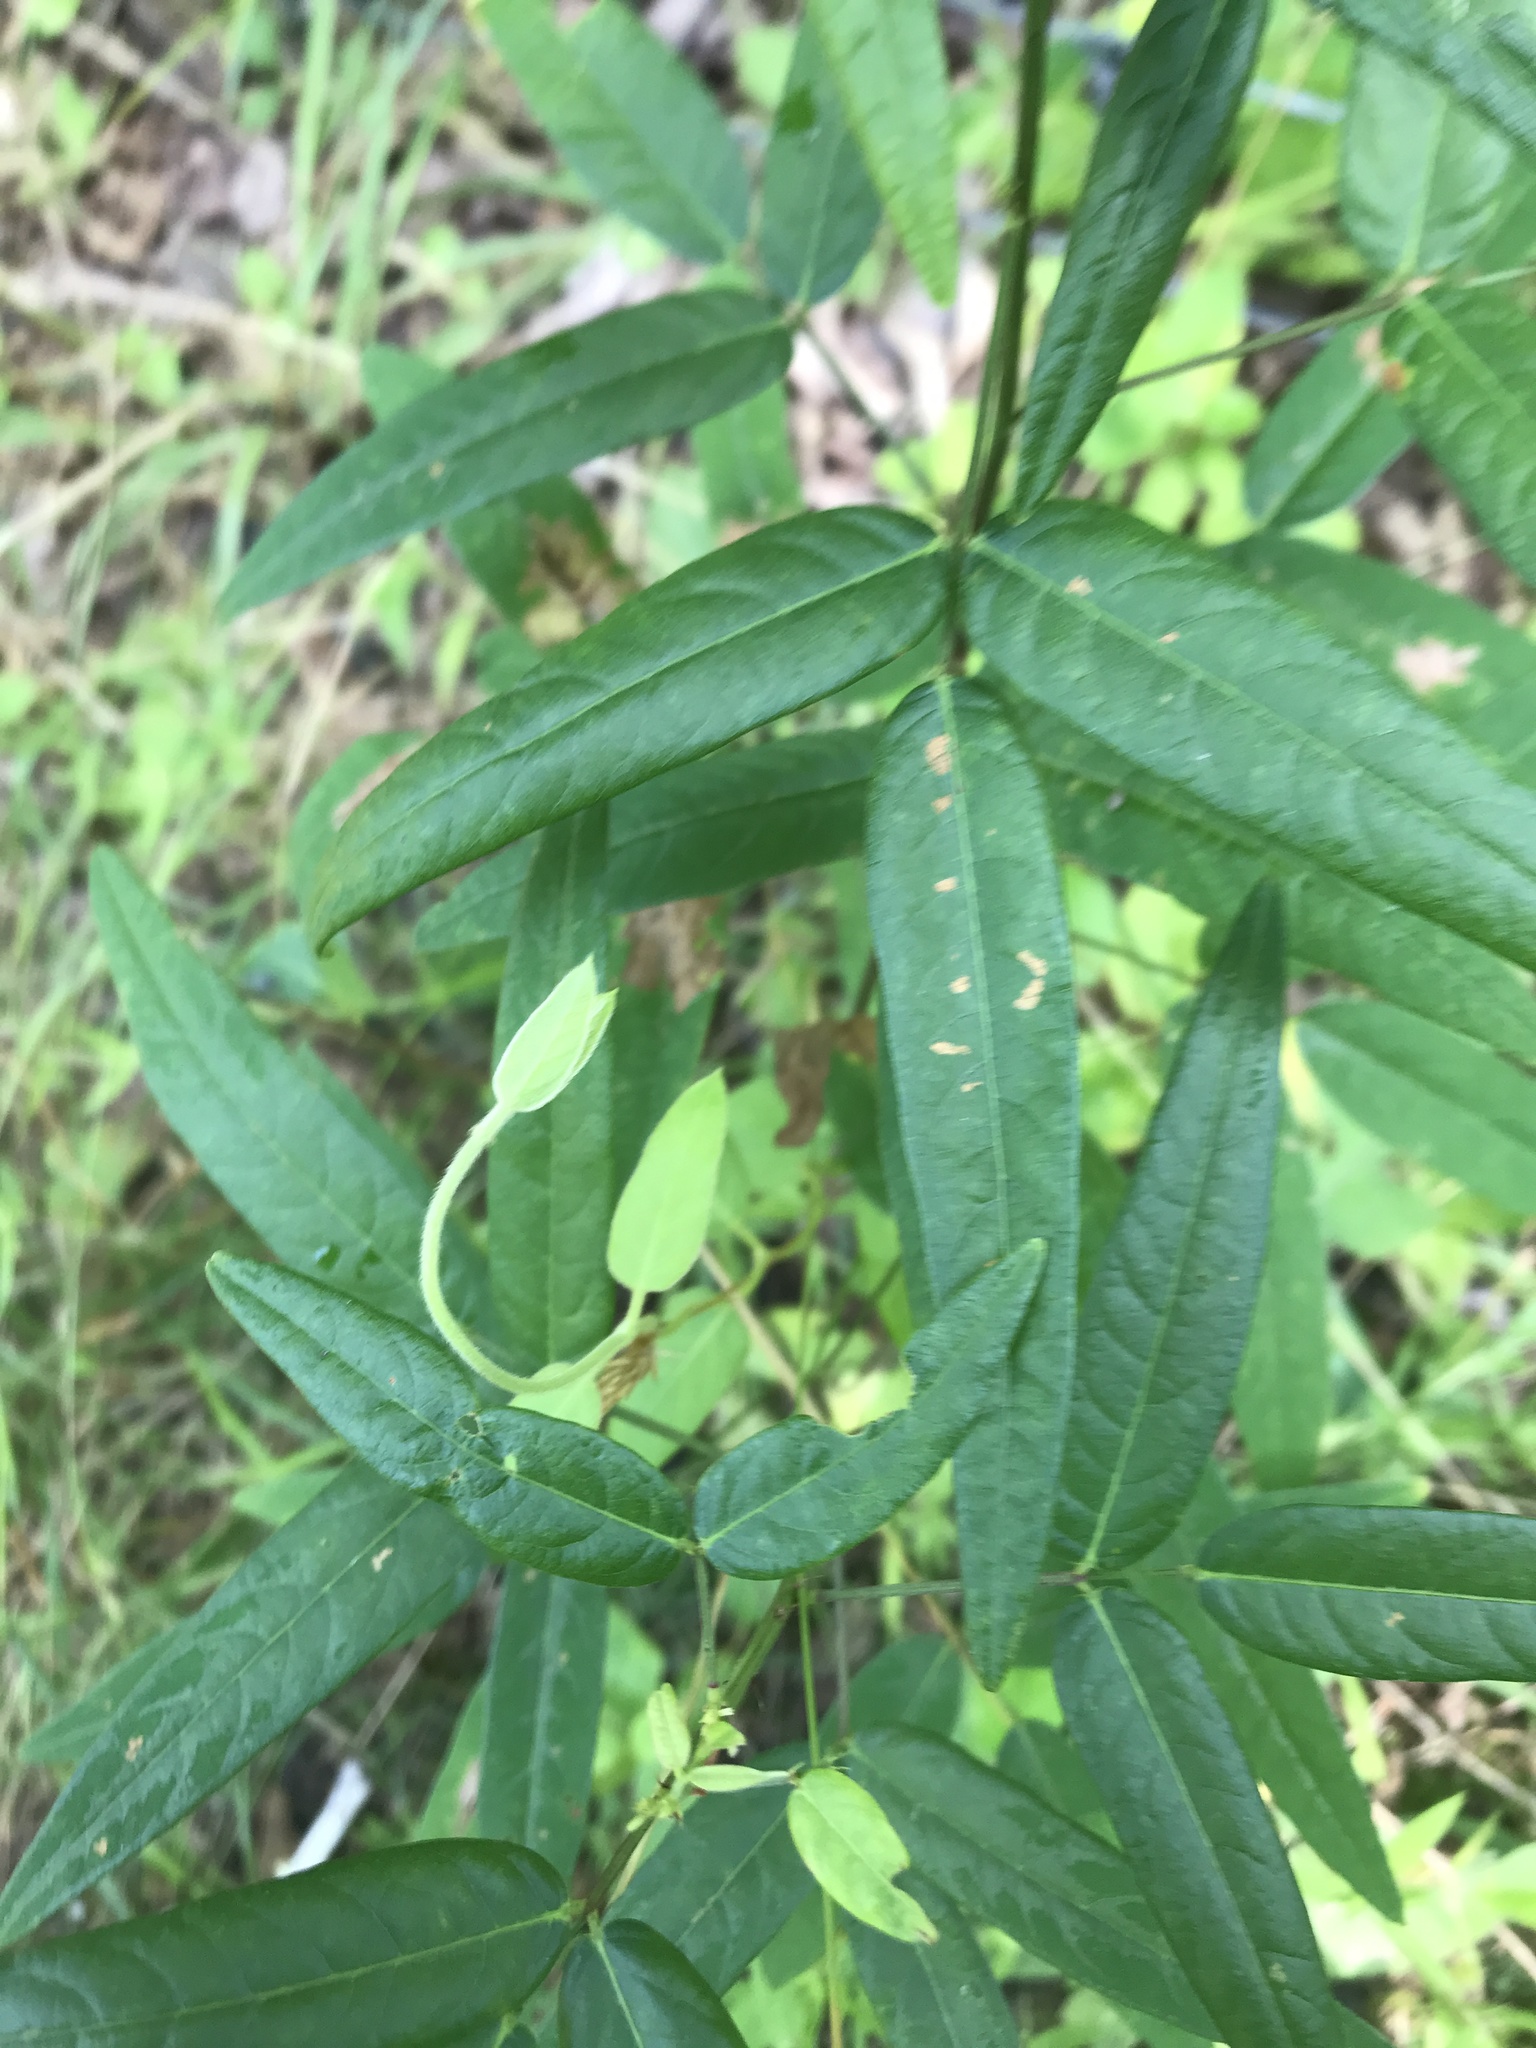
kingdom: Plantae
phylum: Tracheophyta
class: Magnoliopsida
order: Fabales
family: Fabaceae
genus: Desmodium
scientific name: Desmodium paniculatum
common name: Panicled tick-clover
